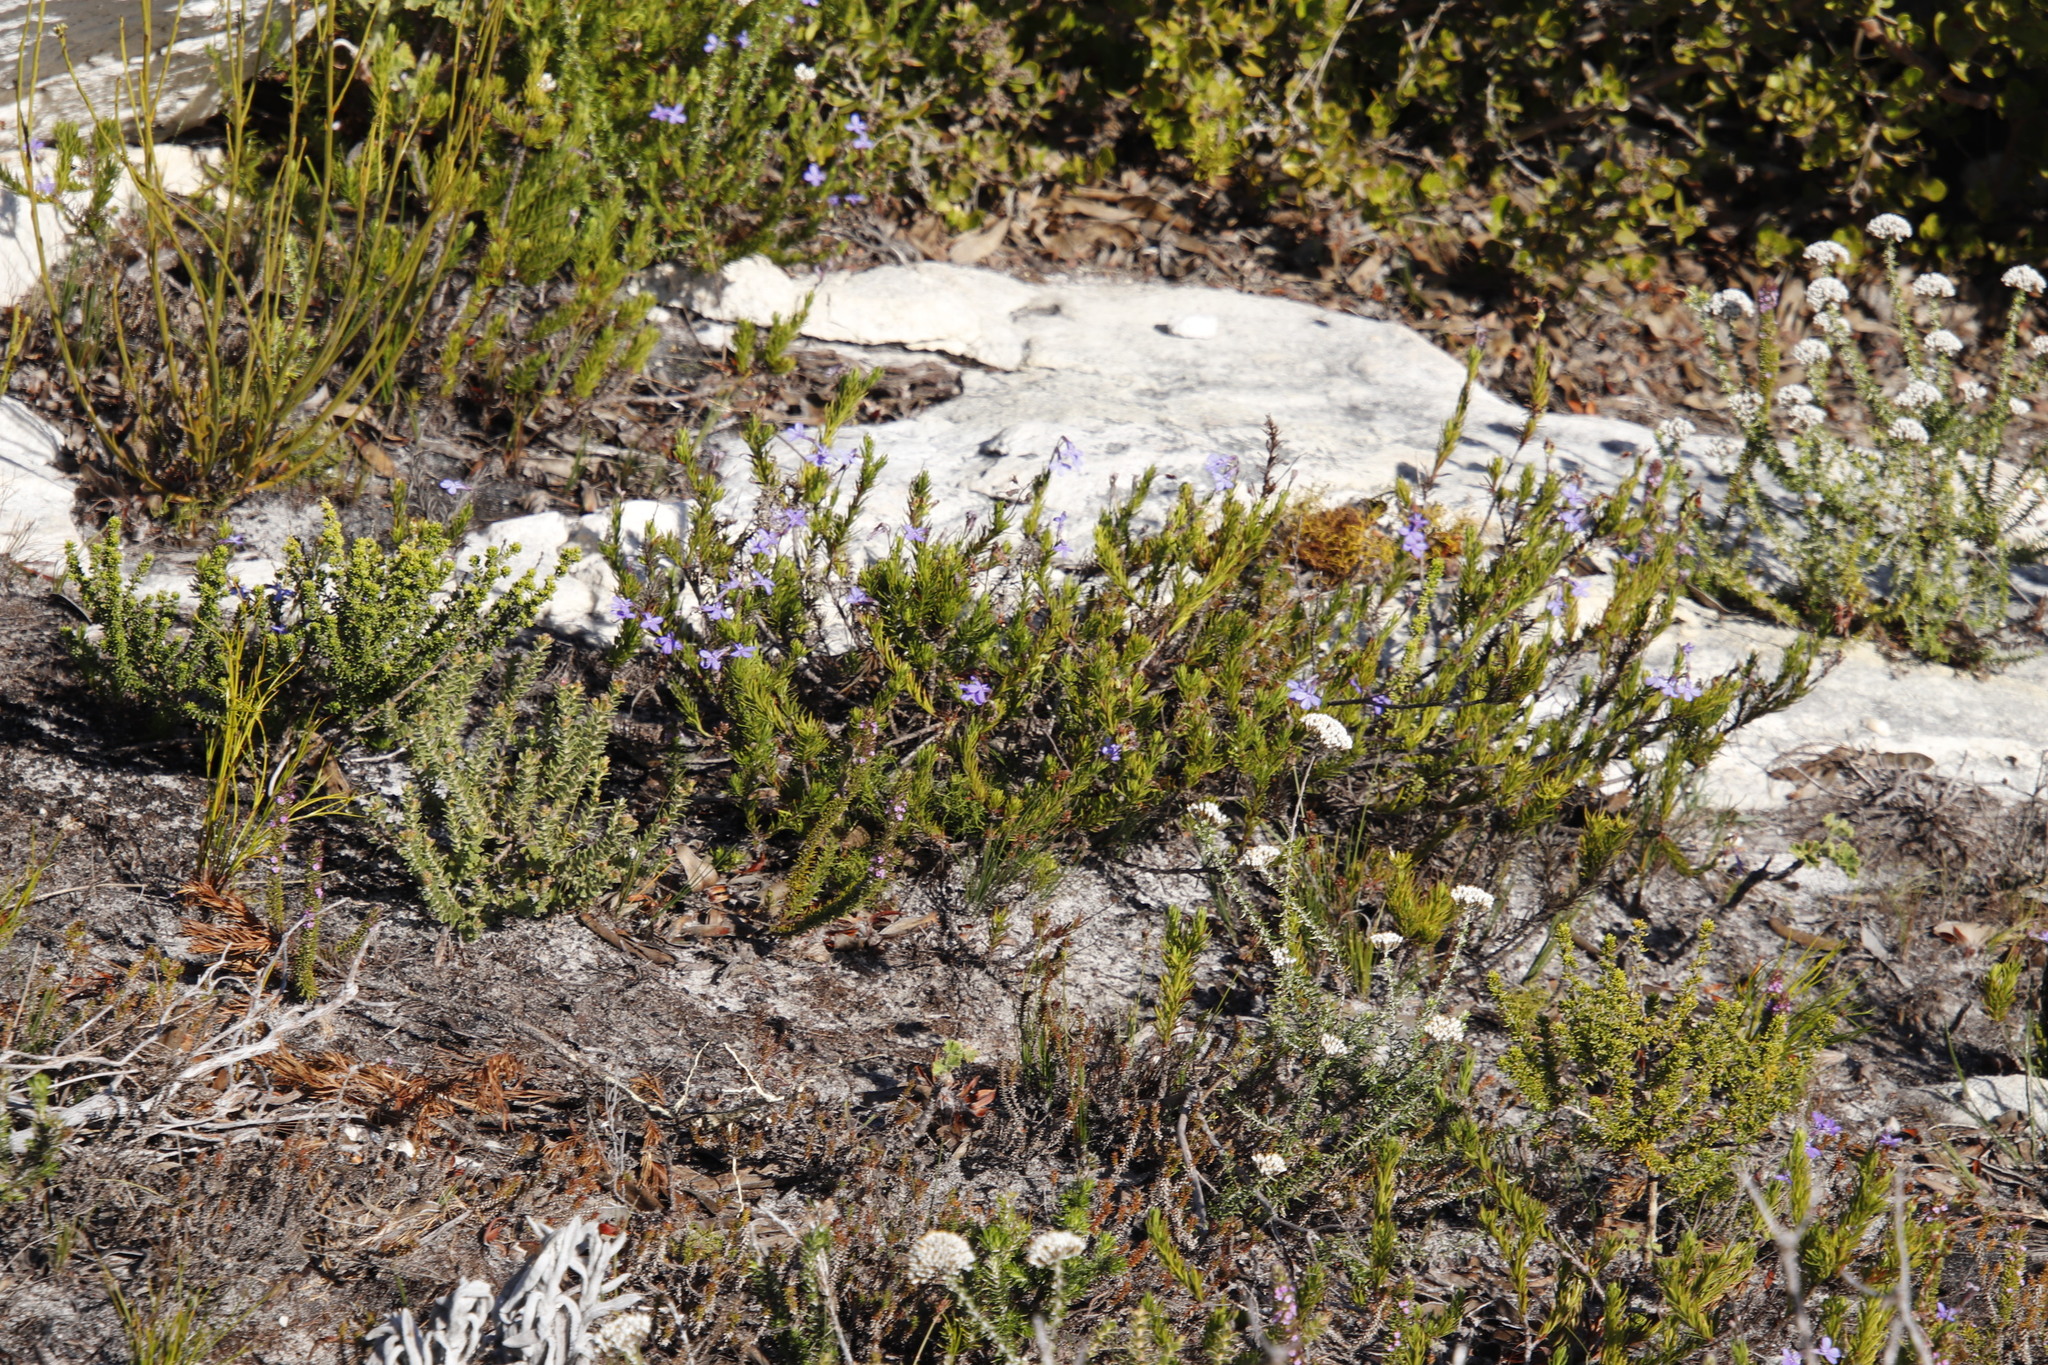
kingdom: Plantae
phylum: Tracheophyta
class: Magnoliopsida
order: Asterales
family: Campanulaceae
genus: Lobelia
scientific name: Lobelia pinifolia
